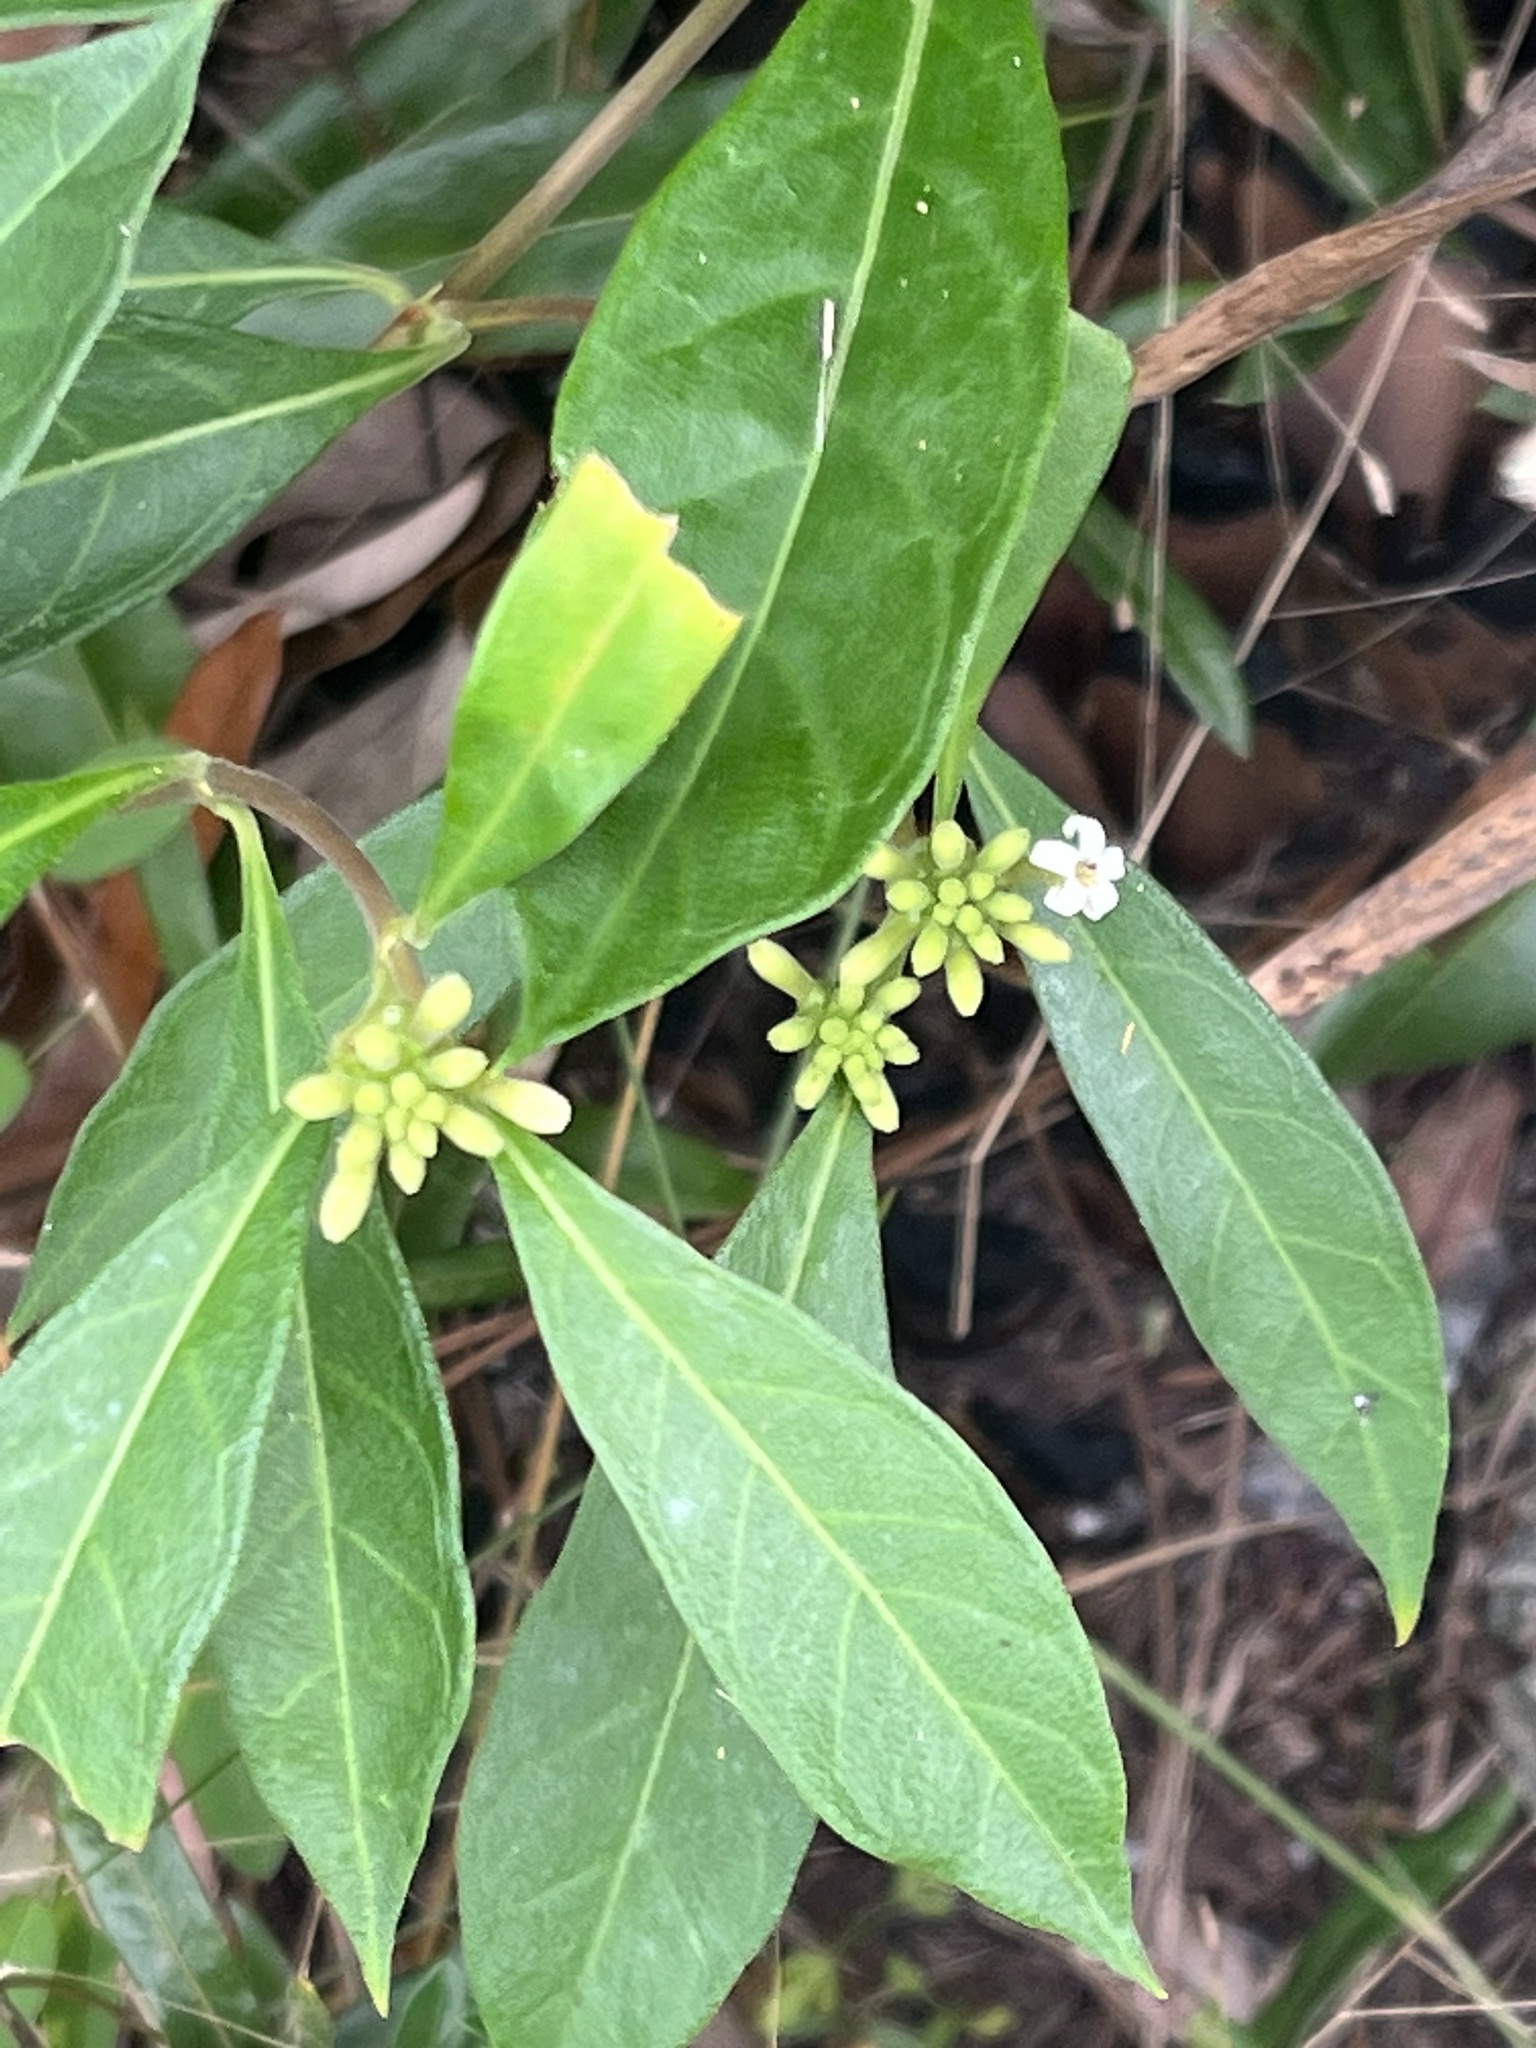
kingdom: Plantae
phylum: Tracheophyta
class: Magnoliopsida
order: Gentianales
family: Rubiaceae
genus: Morinda
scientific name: Morinda royoc
